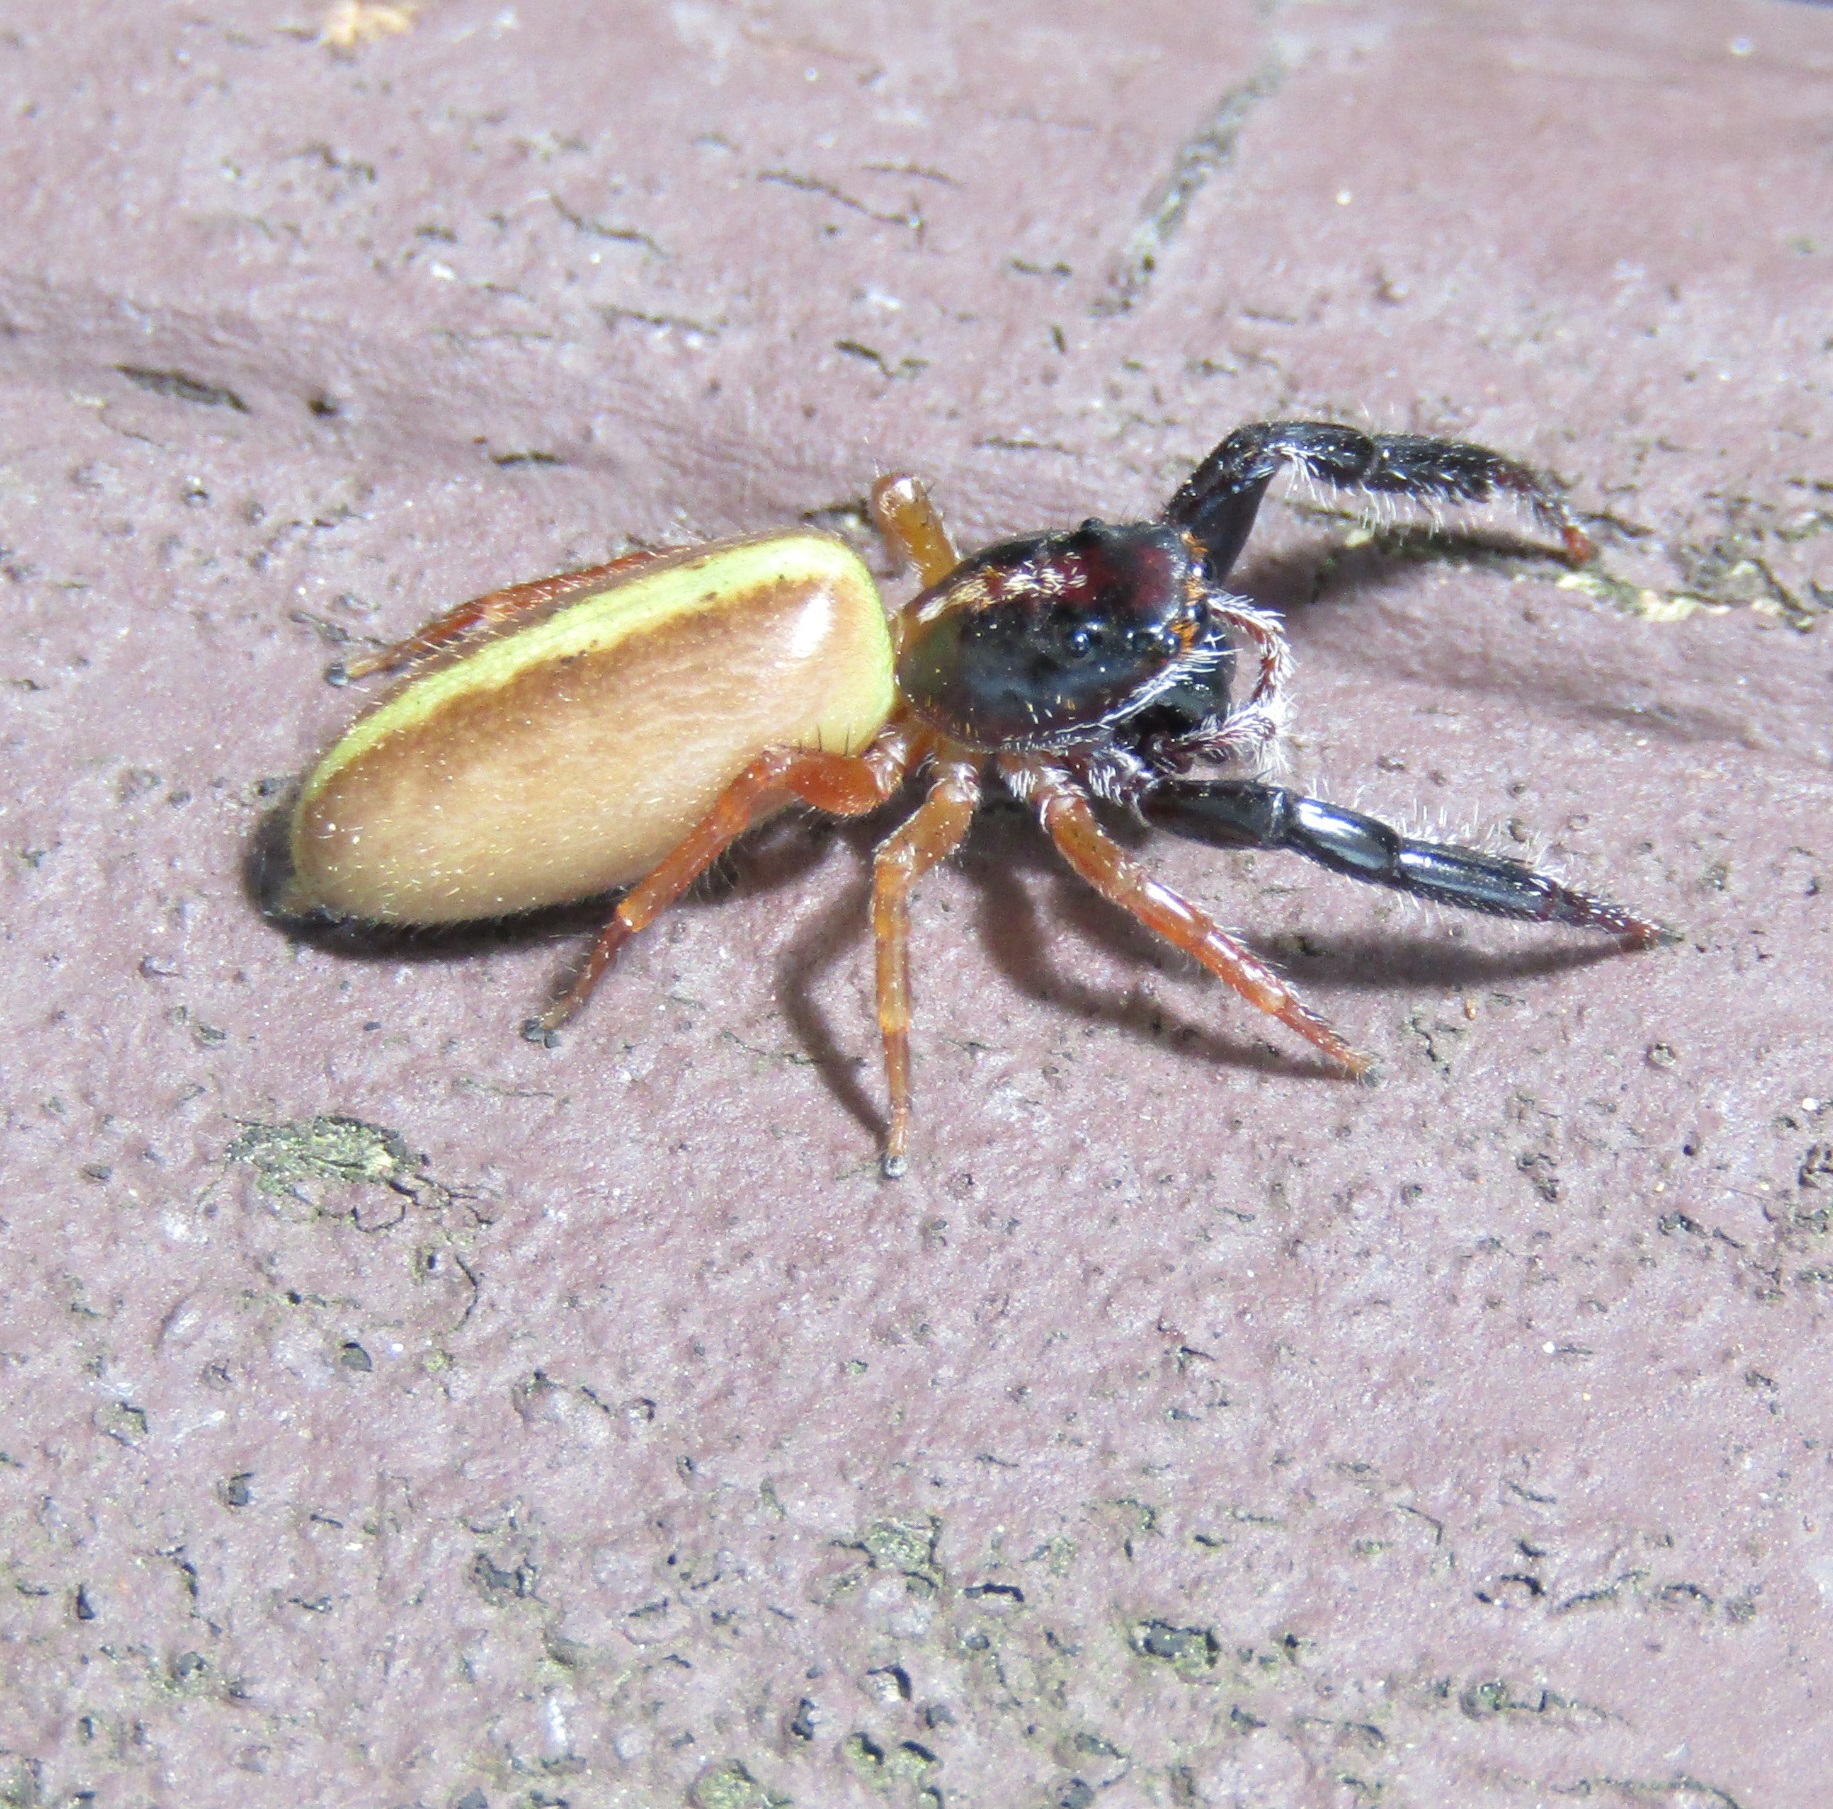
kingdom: Animalia
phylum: Arthropoda
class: Arachnida
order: Araneae
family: Salticidae
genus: Trite
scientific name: Trite planiceps
